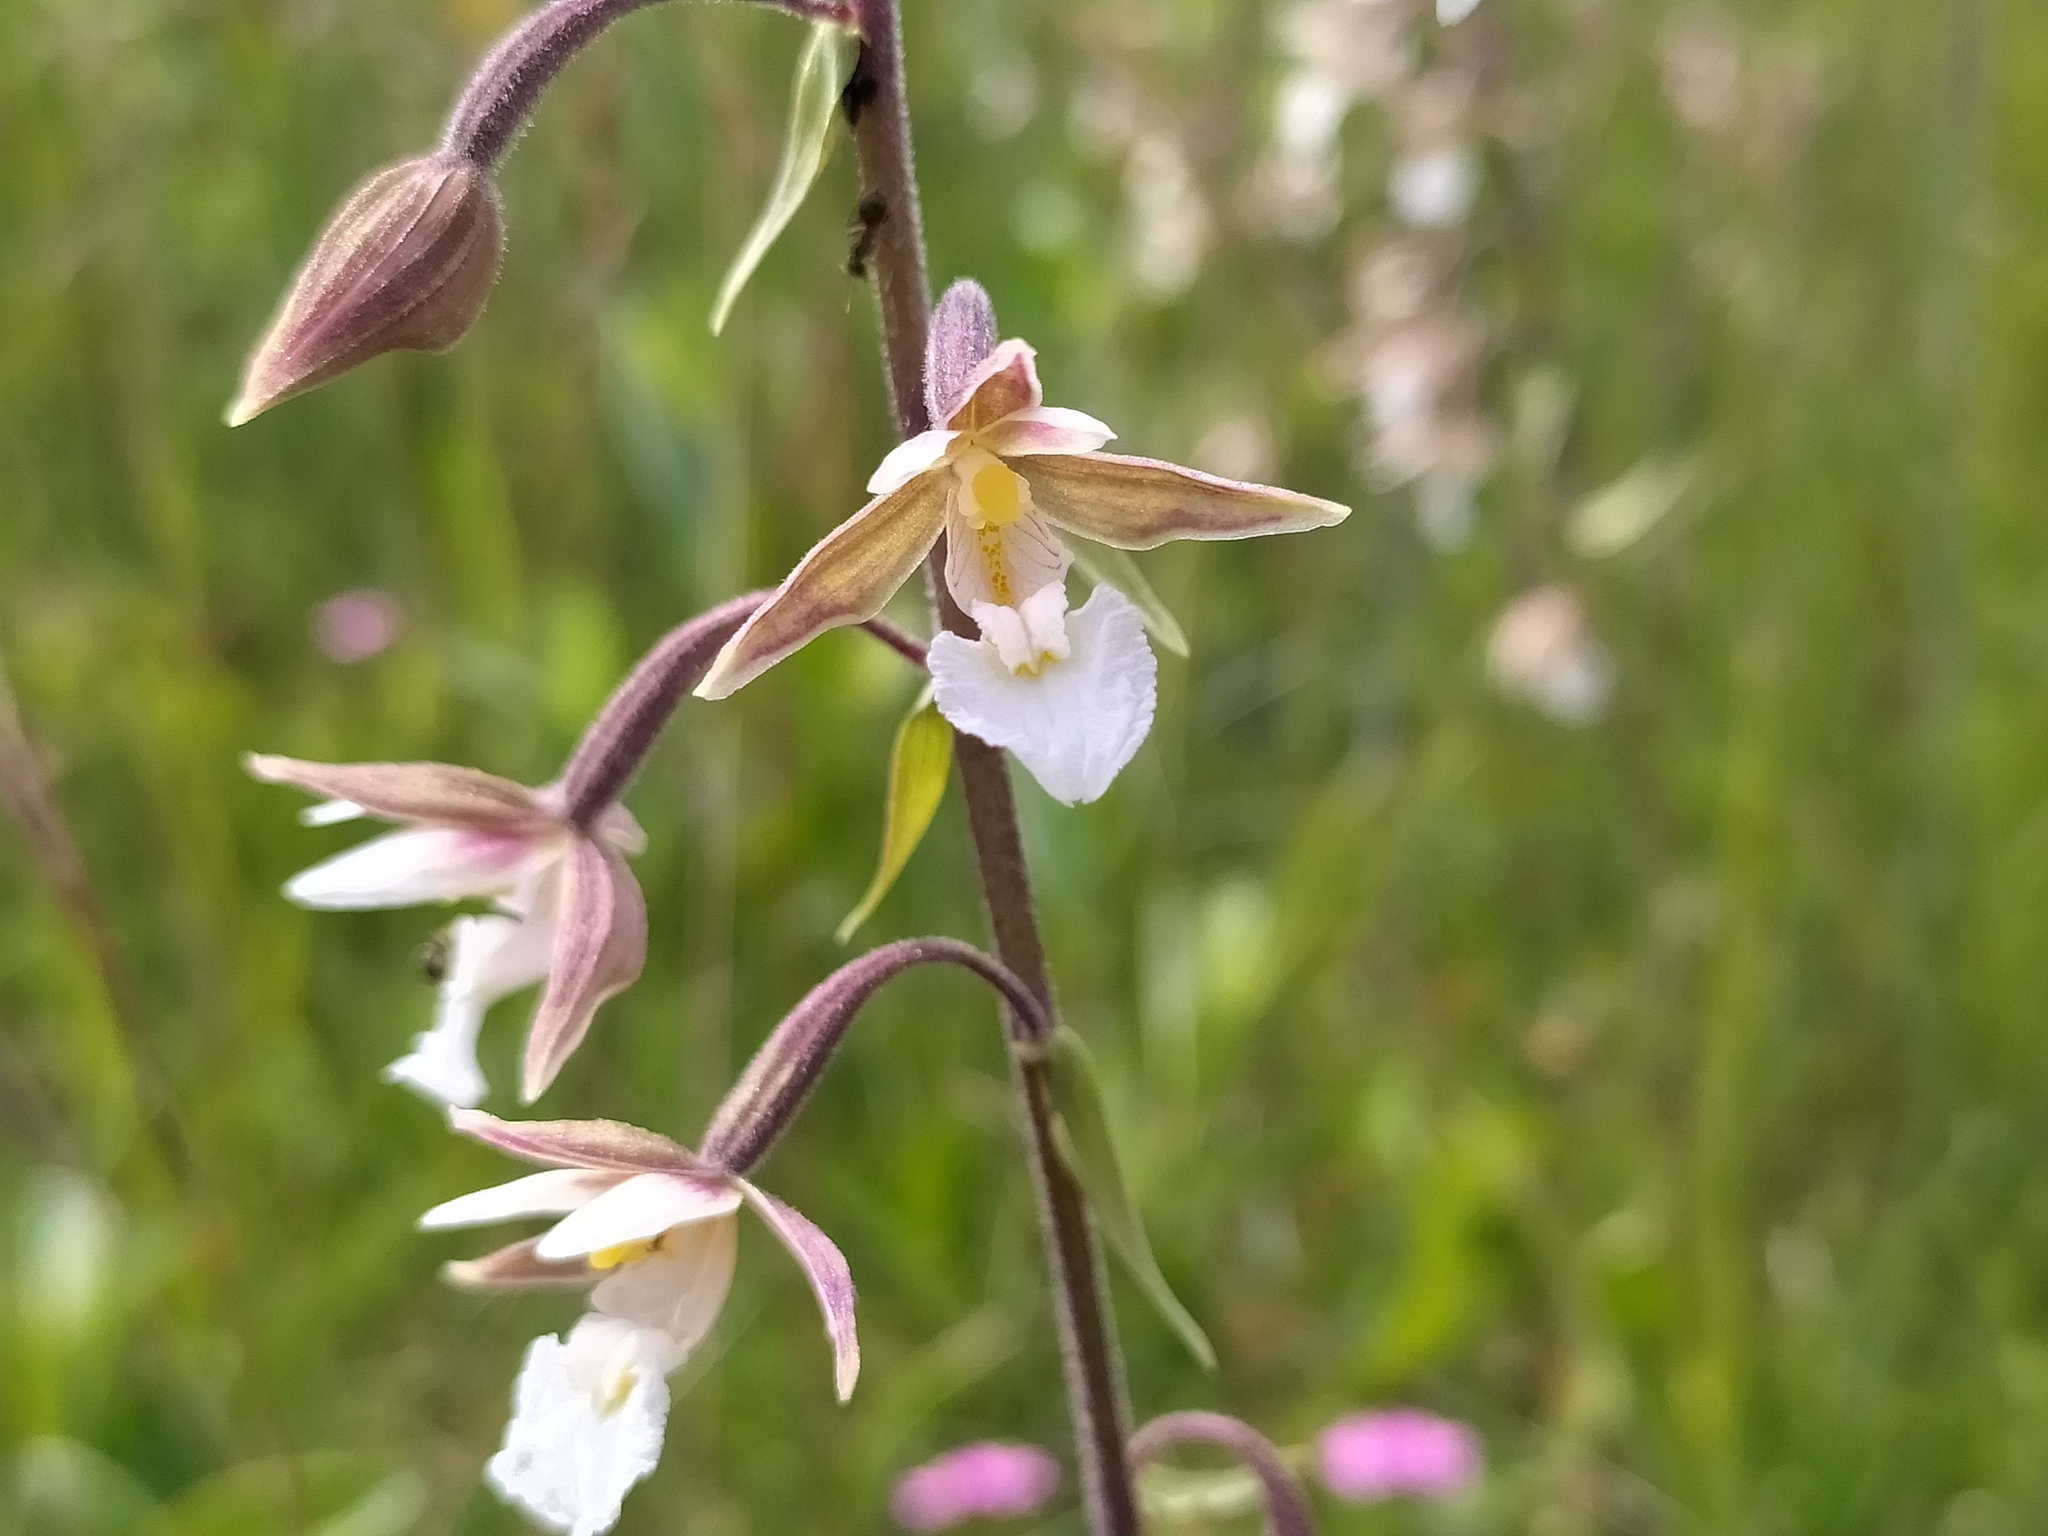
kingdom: Plantae
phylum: Tracheophyta
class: Liliopsida
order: Asparagales
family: Orchidaceae
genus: Epipactis
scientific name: Epipactis palustris
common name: Marsh helleborine
